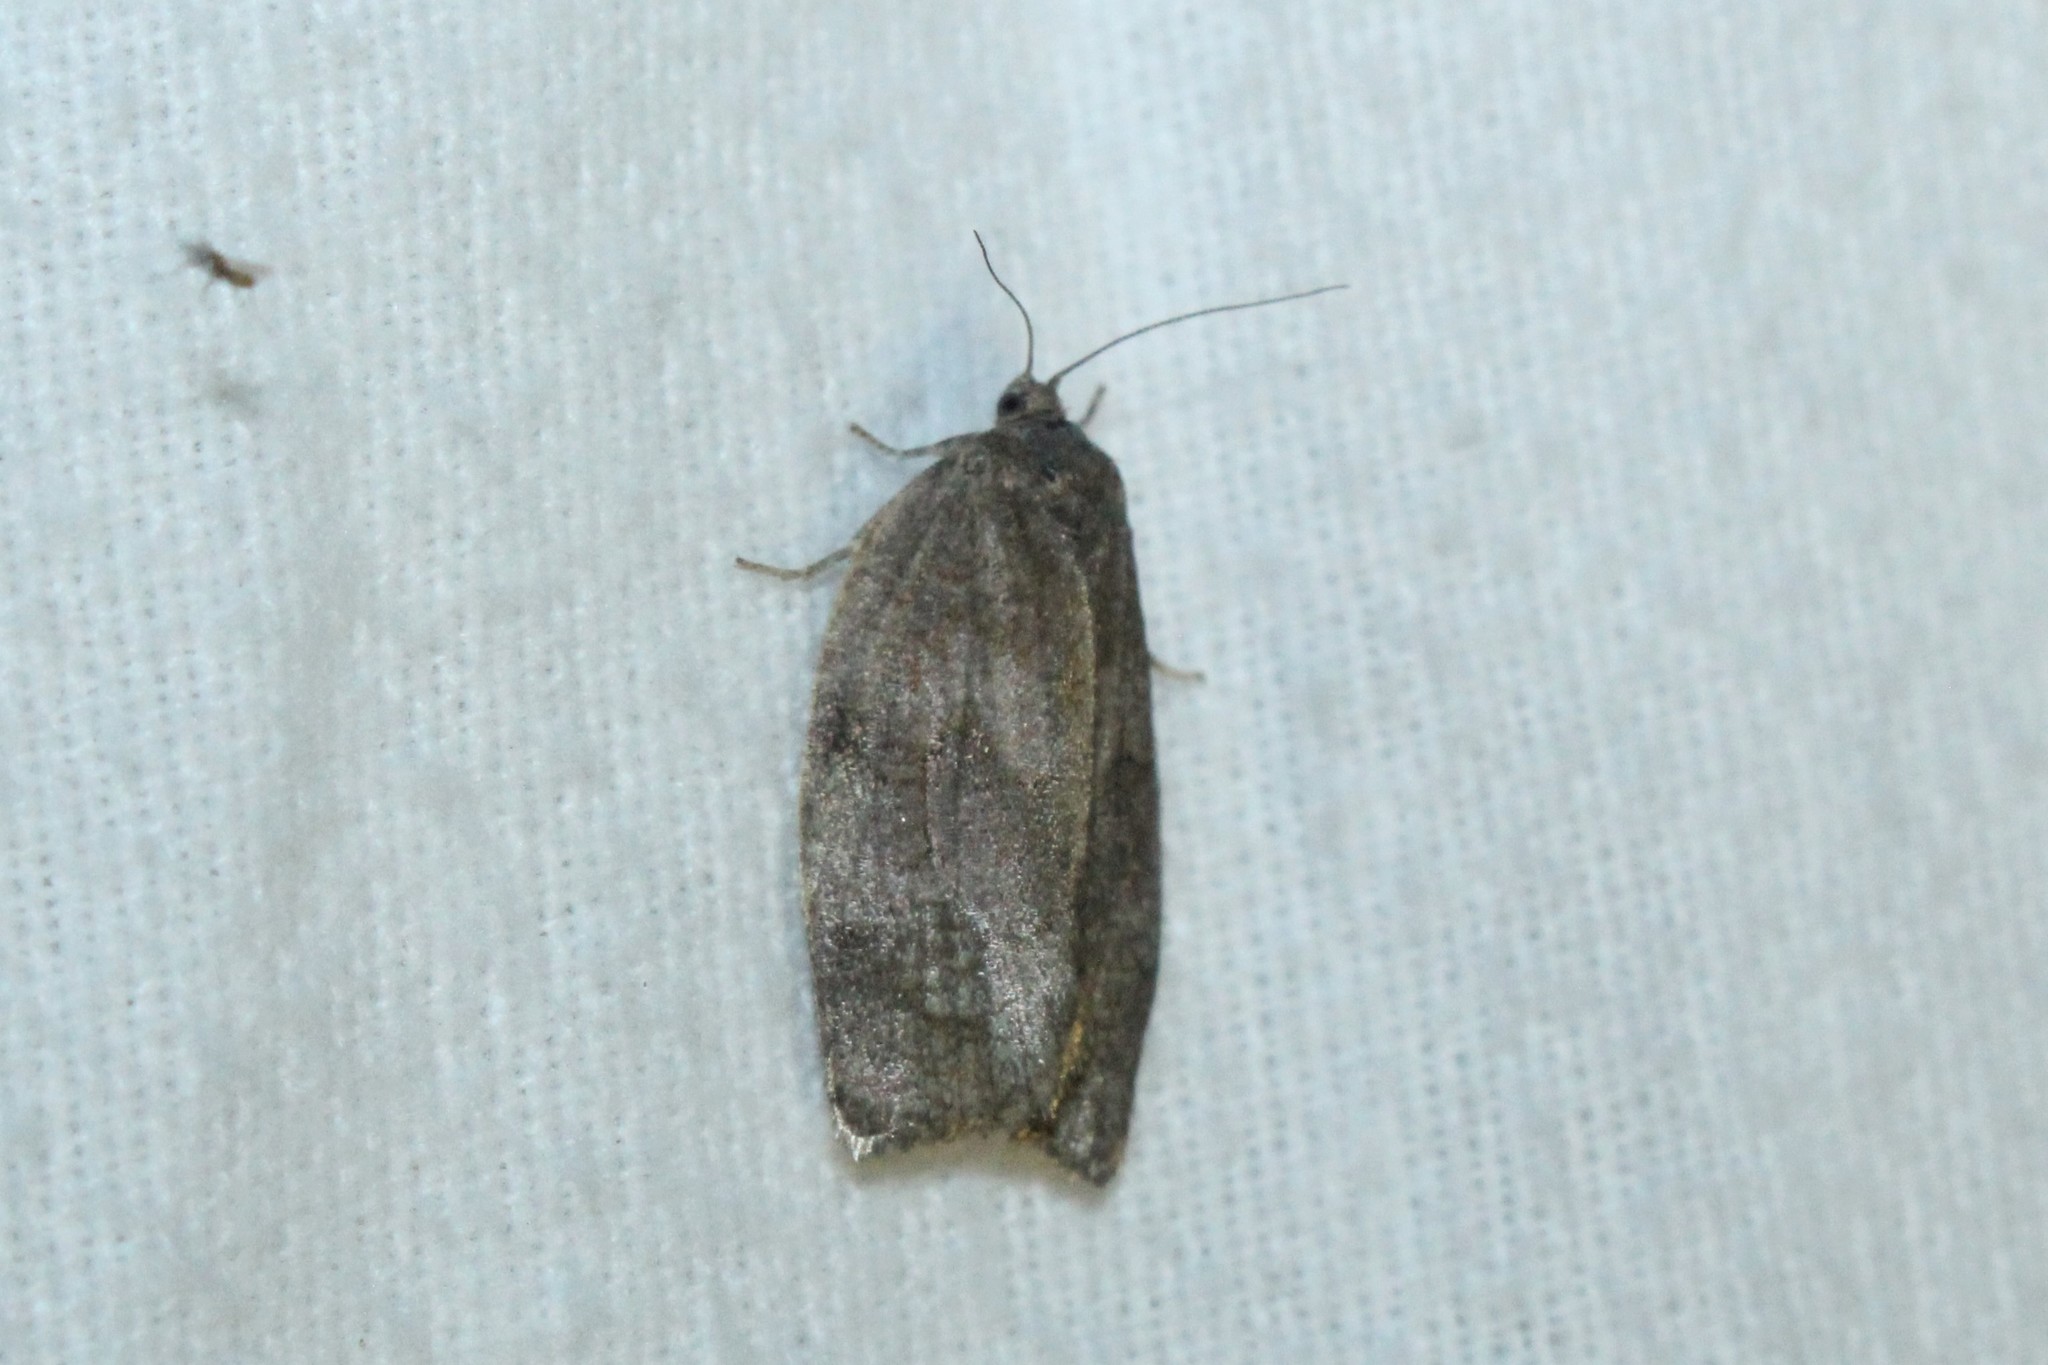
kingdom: Animalia
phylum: Arthropoda
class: Insecta
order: Lepidoptera
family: Tortricidae
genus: Choristoneura
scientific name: Choristoneura conflictana
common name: Large aspen tortrix
